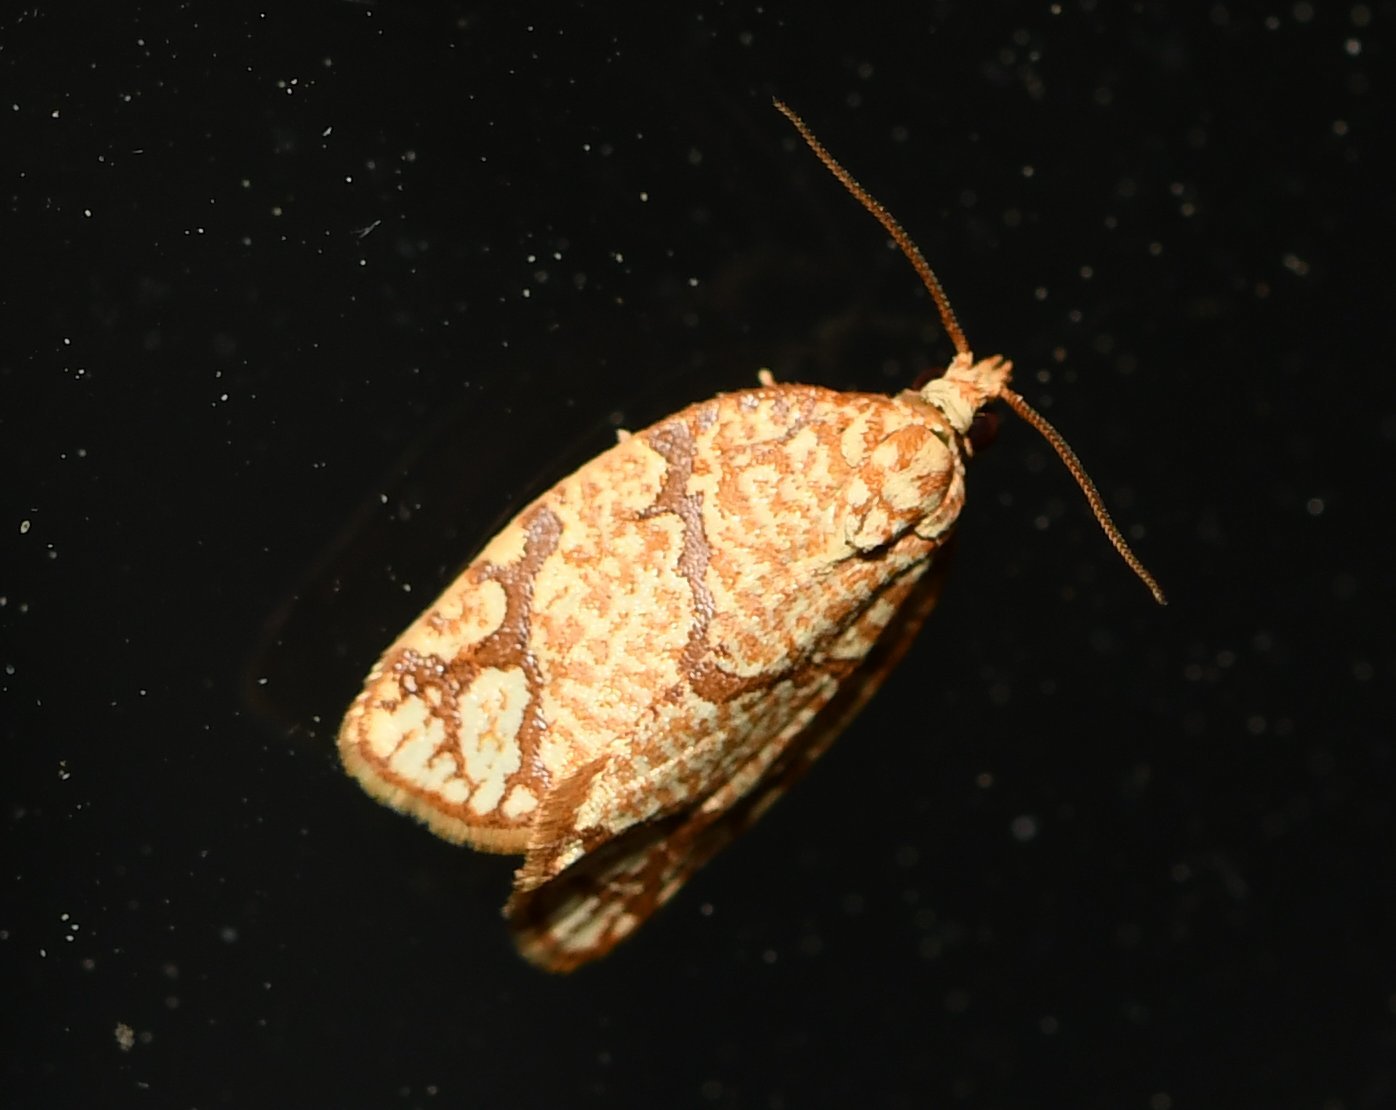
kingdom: Animalia
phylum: Arthropoda
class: Insecta
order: Lepidoptera
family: Tortricidae
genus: Argyrotaenia
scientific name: Argyrotaenia quercifoliana
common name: Yellow-winged oak leafroller moth
